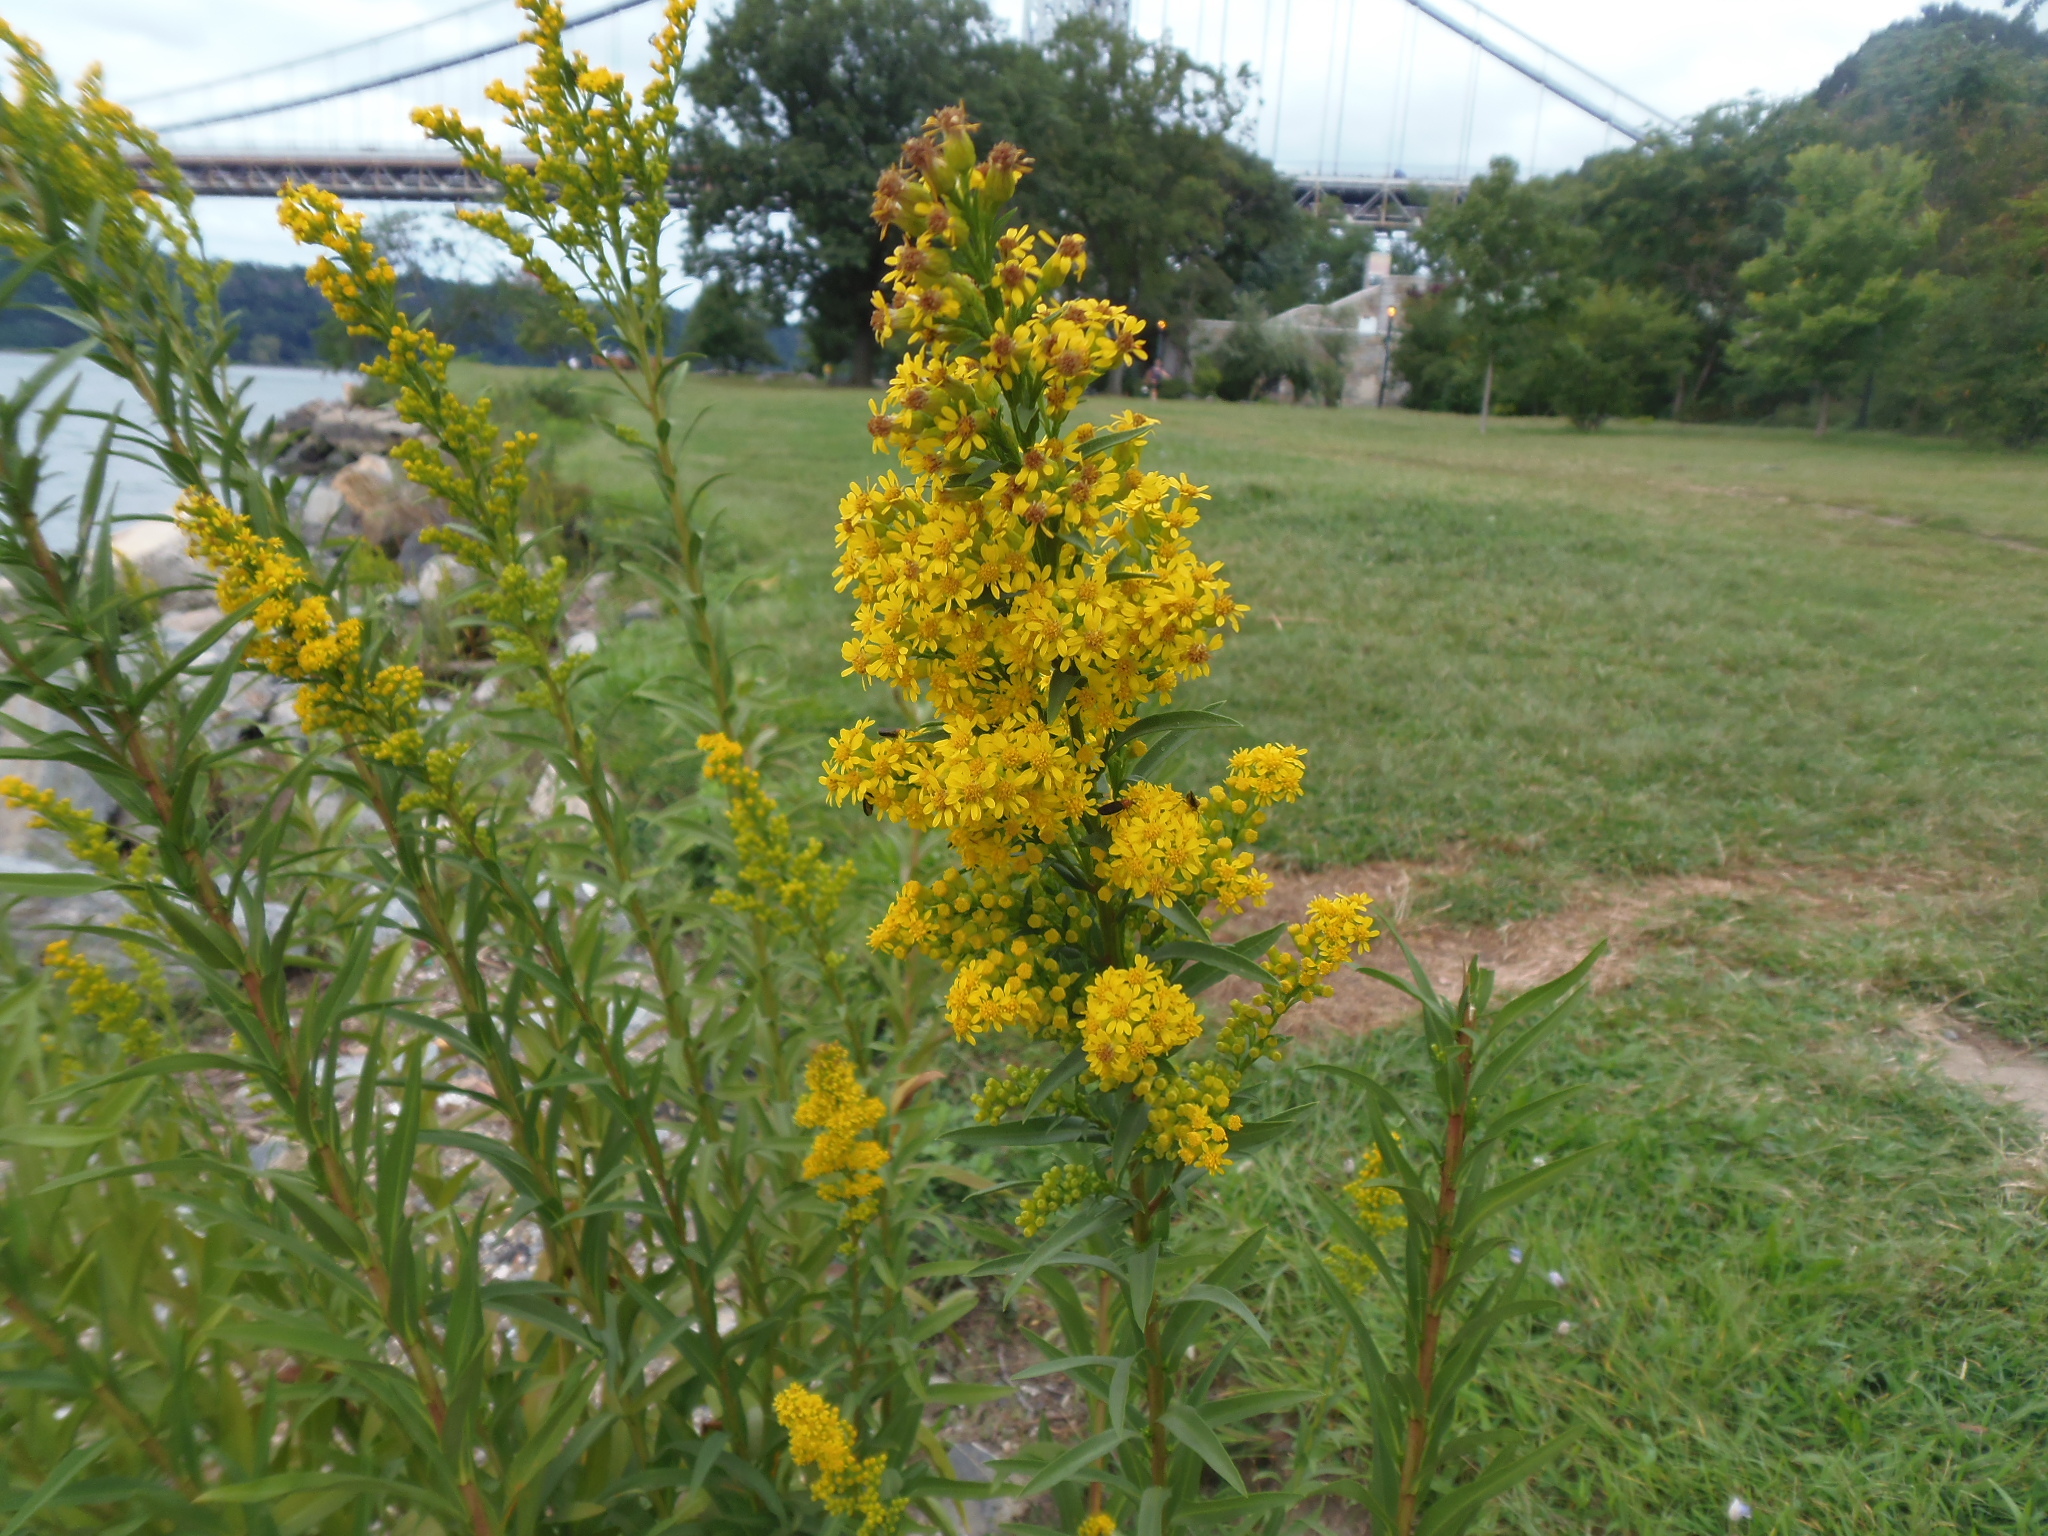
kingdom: Plantae
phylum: Tracheophyta
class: Magnoliopsida
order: Asterales
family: Asteraceae
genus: Solidago
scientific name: Solidago sempervirens
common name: Salt-marsh goldenrod
